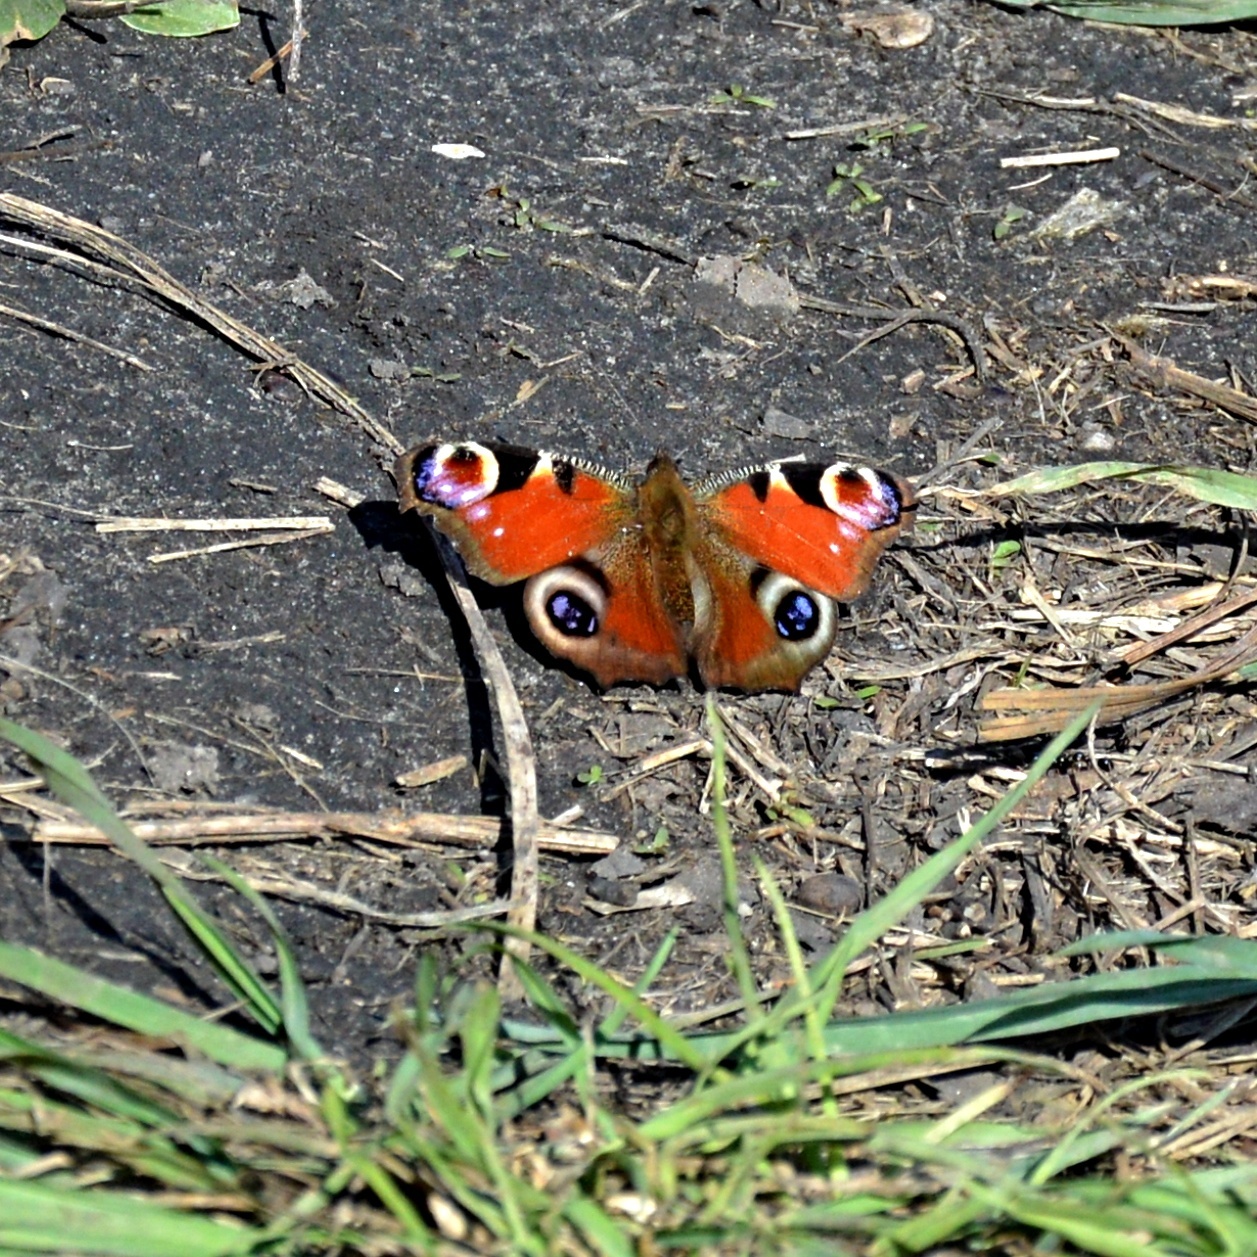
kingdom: Animalia
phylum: Arthropoda
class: Insecta
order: Lepidoptera
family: Nymphalidae
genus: Aglais
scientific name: Aglais io
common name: Peacock
